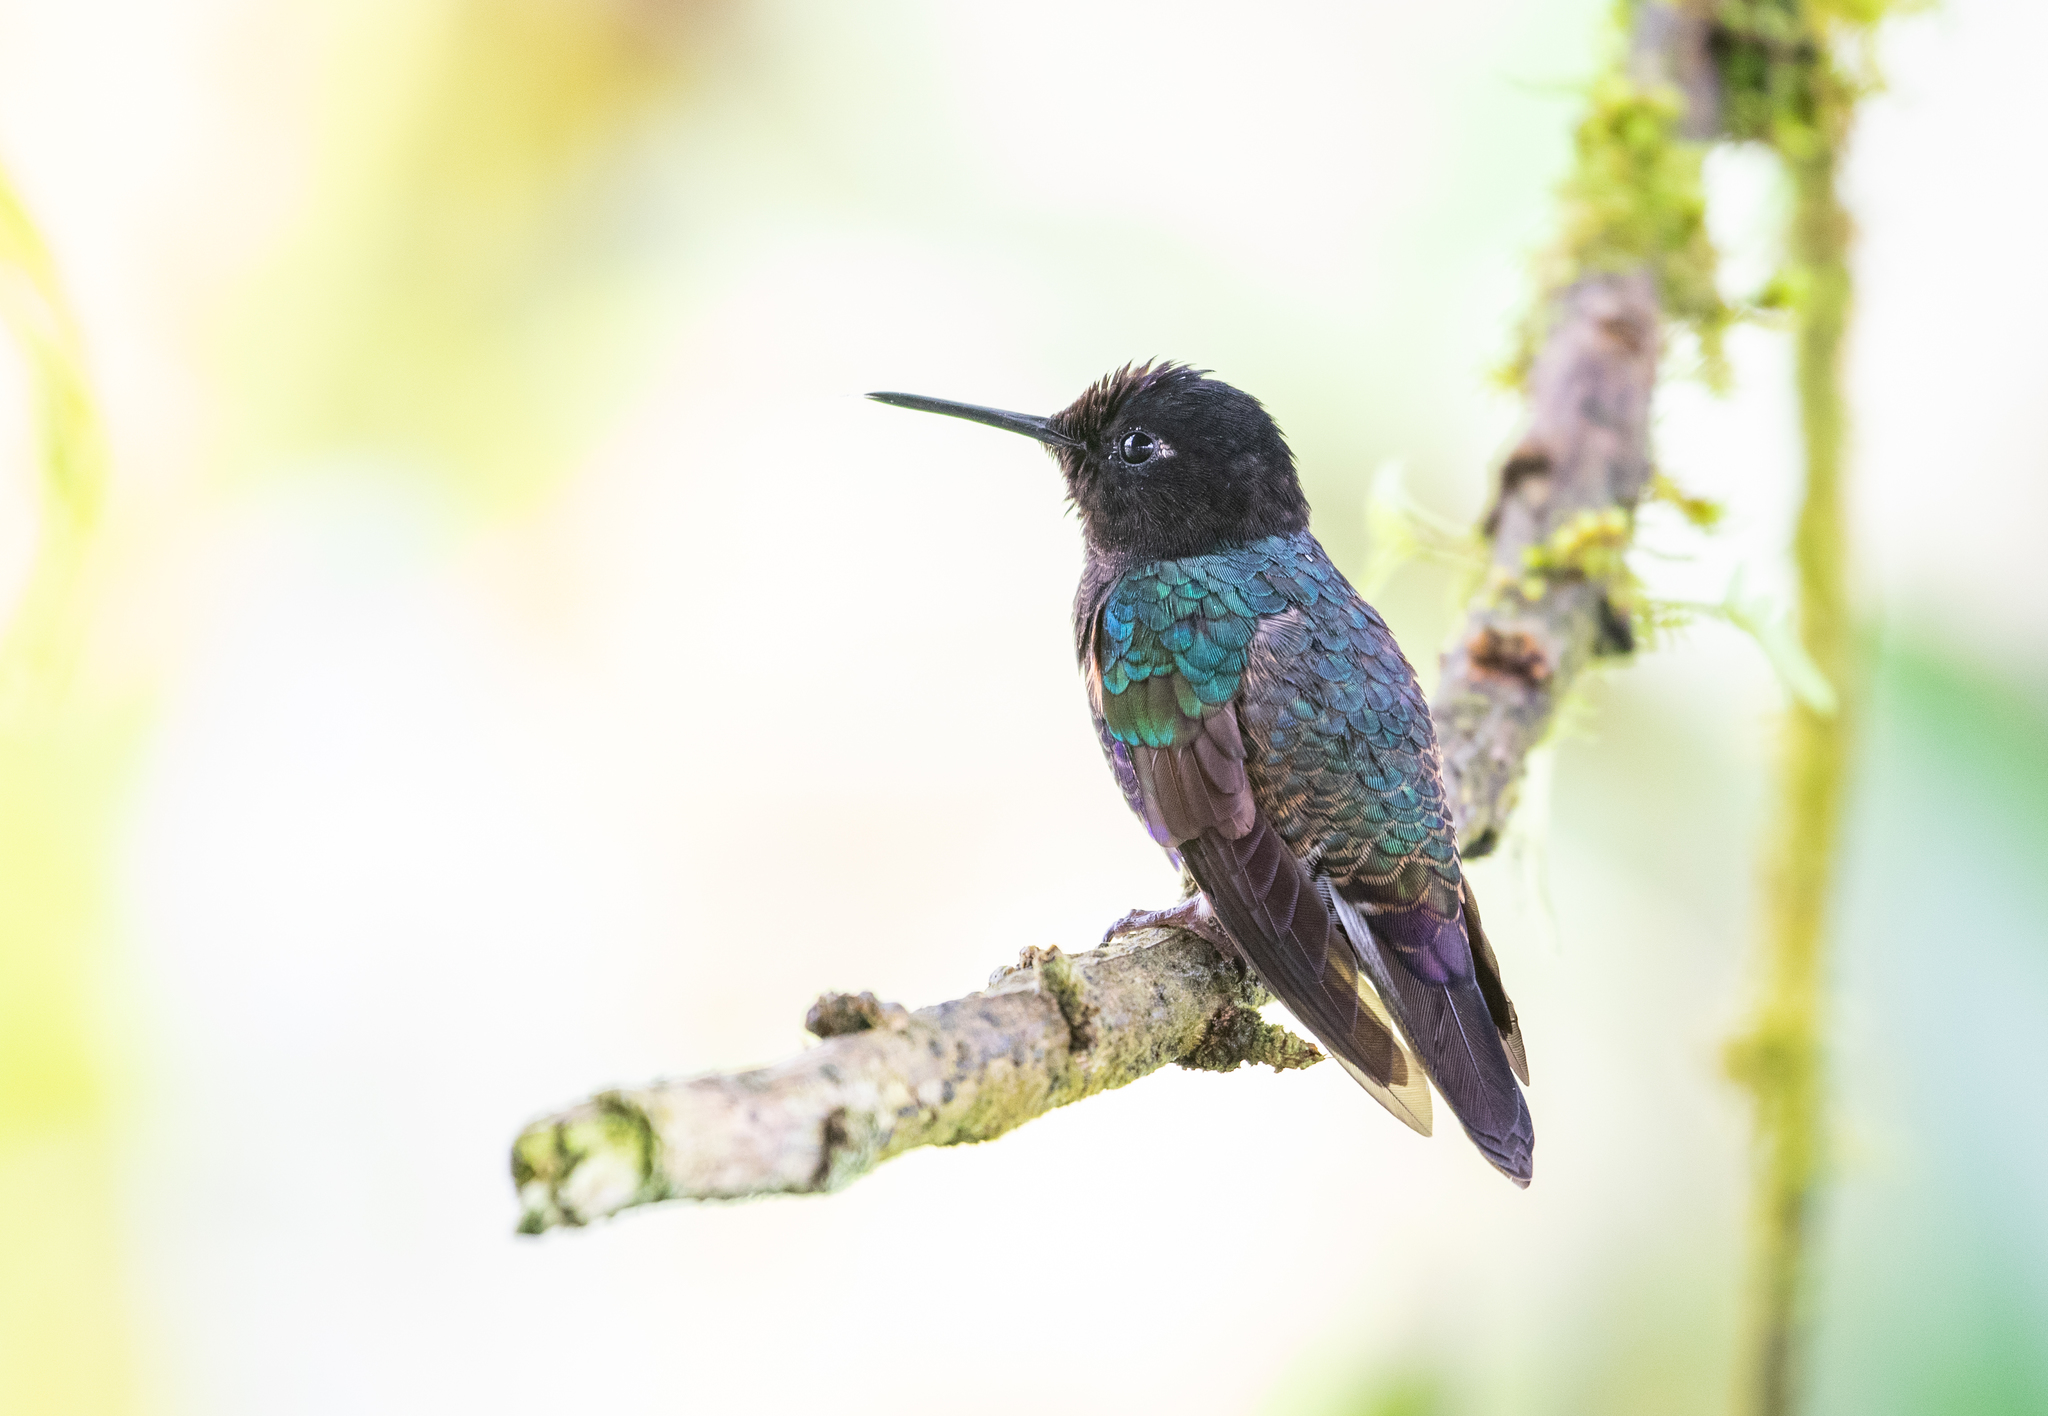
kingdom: Animalia
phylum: Chordata
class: Aves
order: Apodiformes
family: Trochilidae
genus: Boissonneaua
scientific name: Boissonneaua jardini
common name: Velvet-purple coronet
